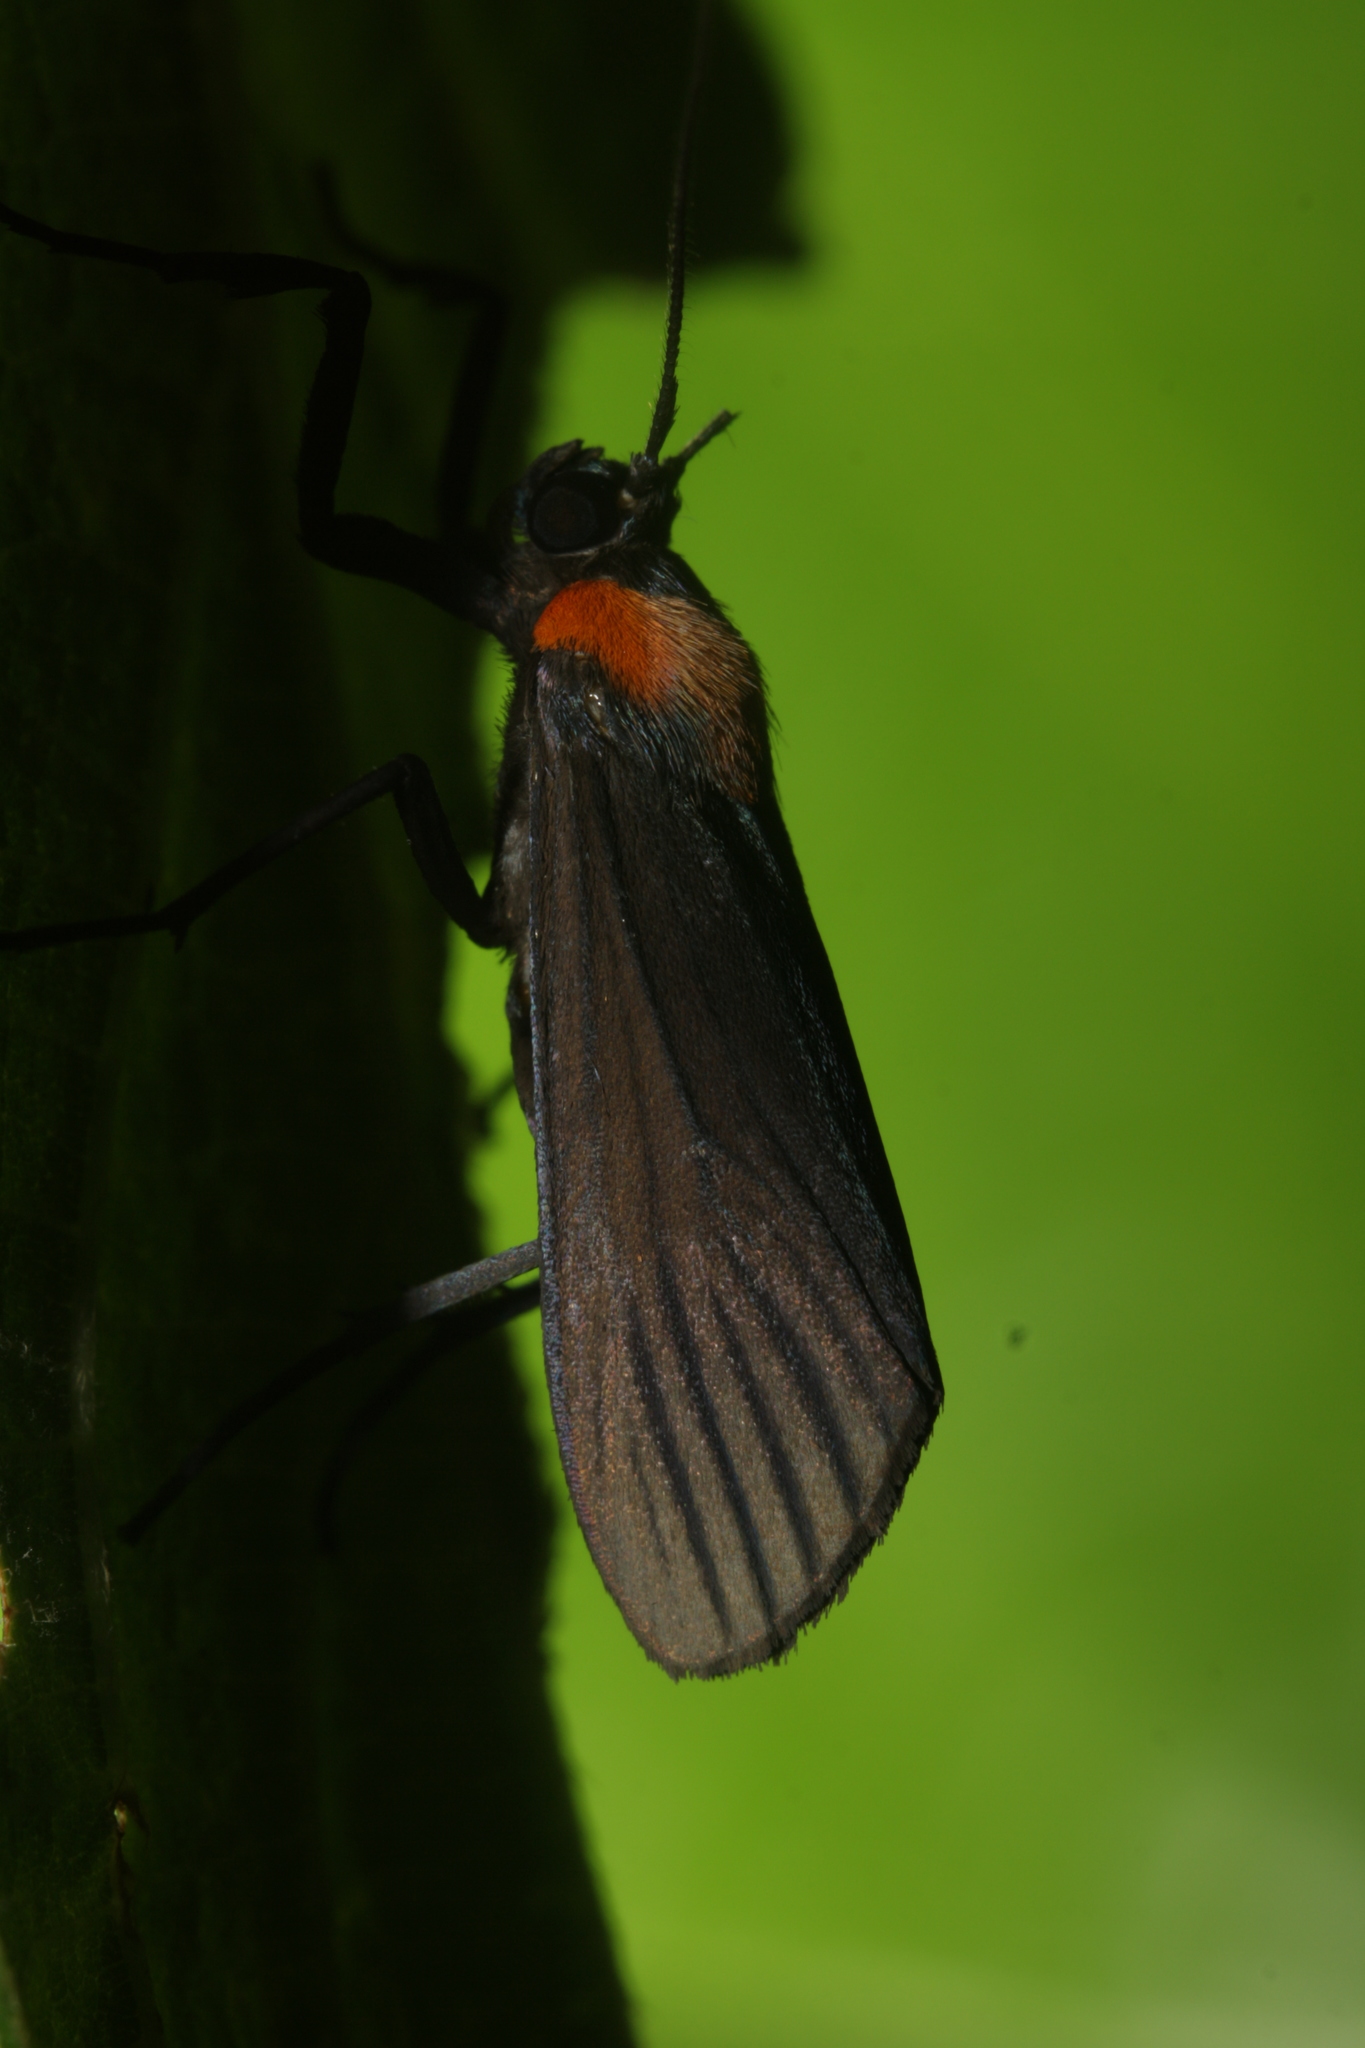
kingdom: Animalia
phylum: Arthropoda
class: Insecta
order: Lepidoptera
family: Erebidae
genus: Balbura
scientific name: Balbura intervenata
